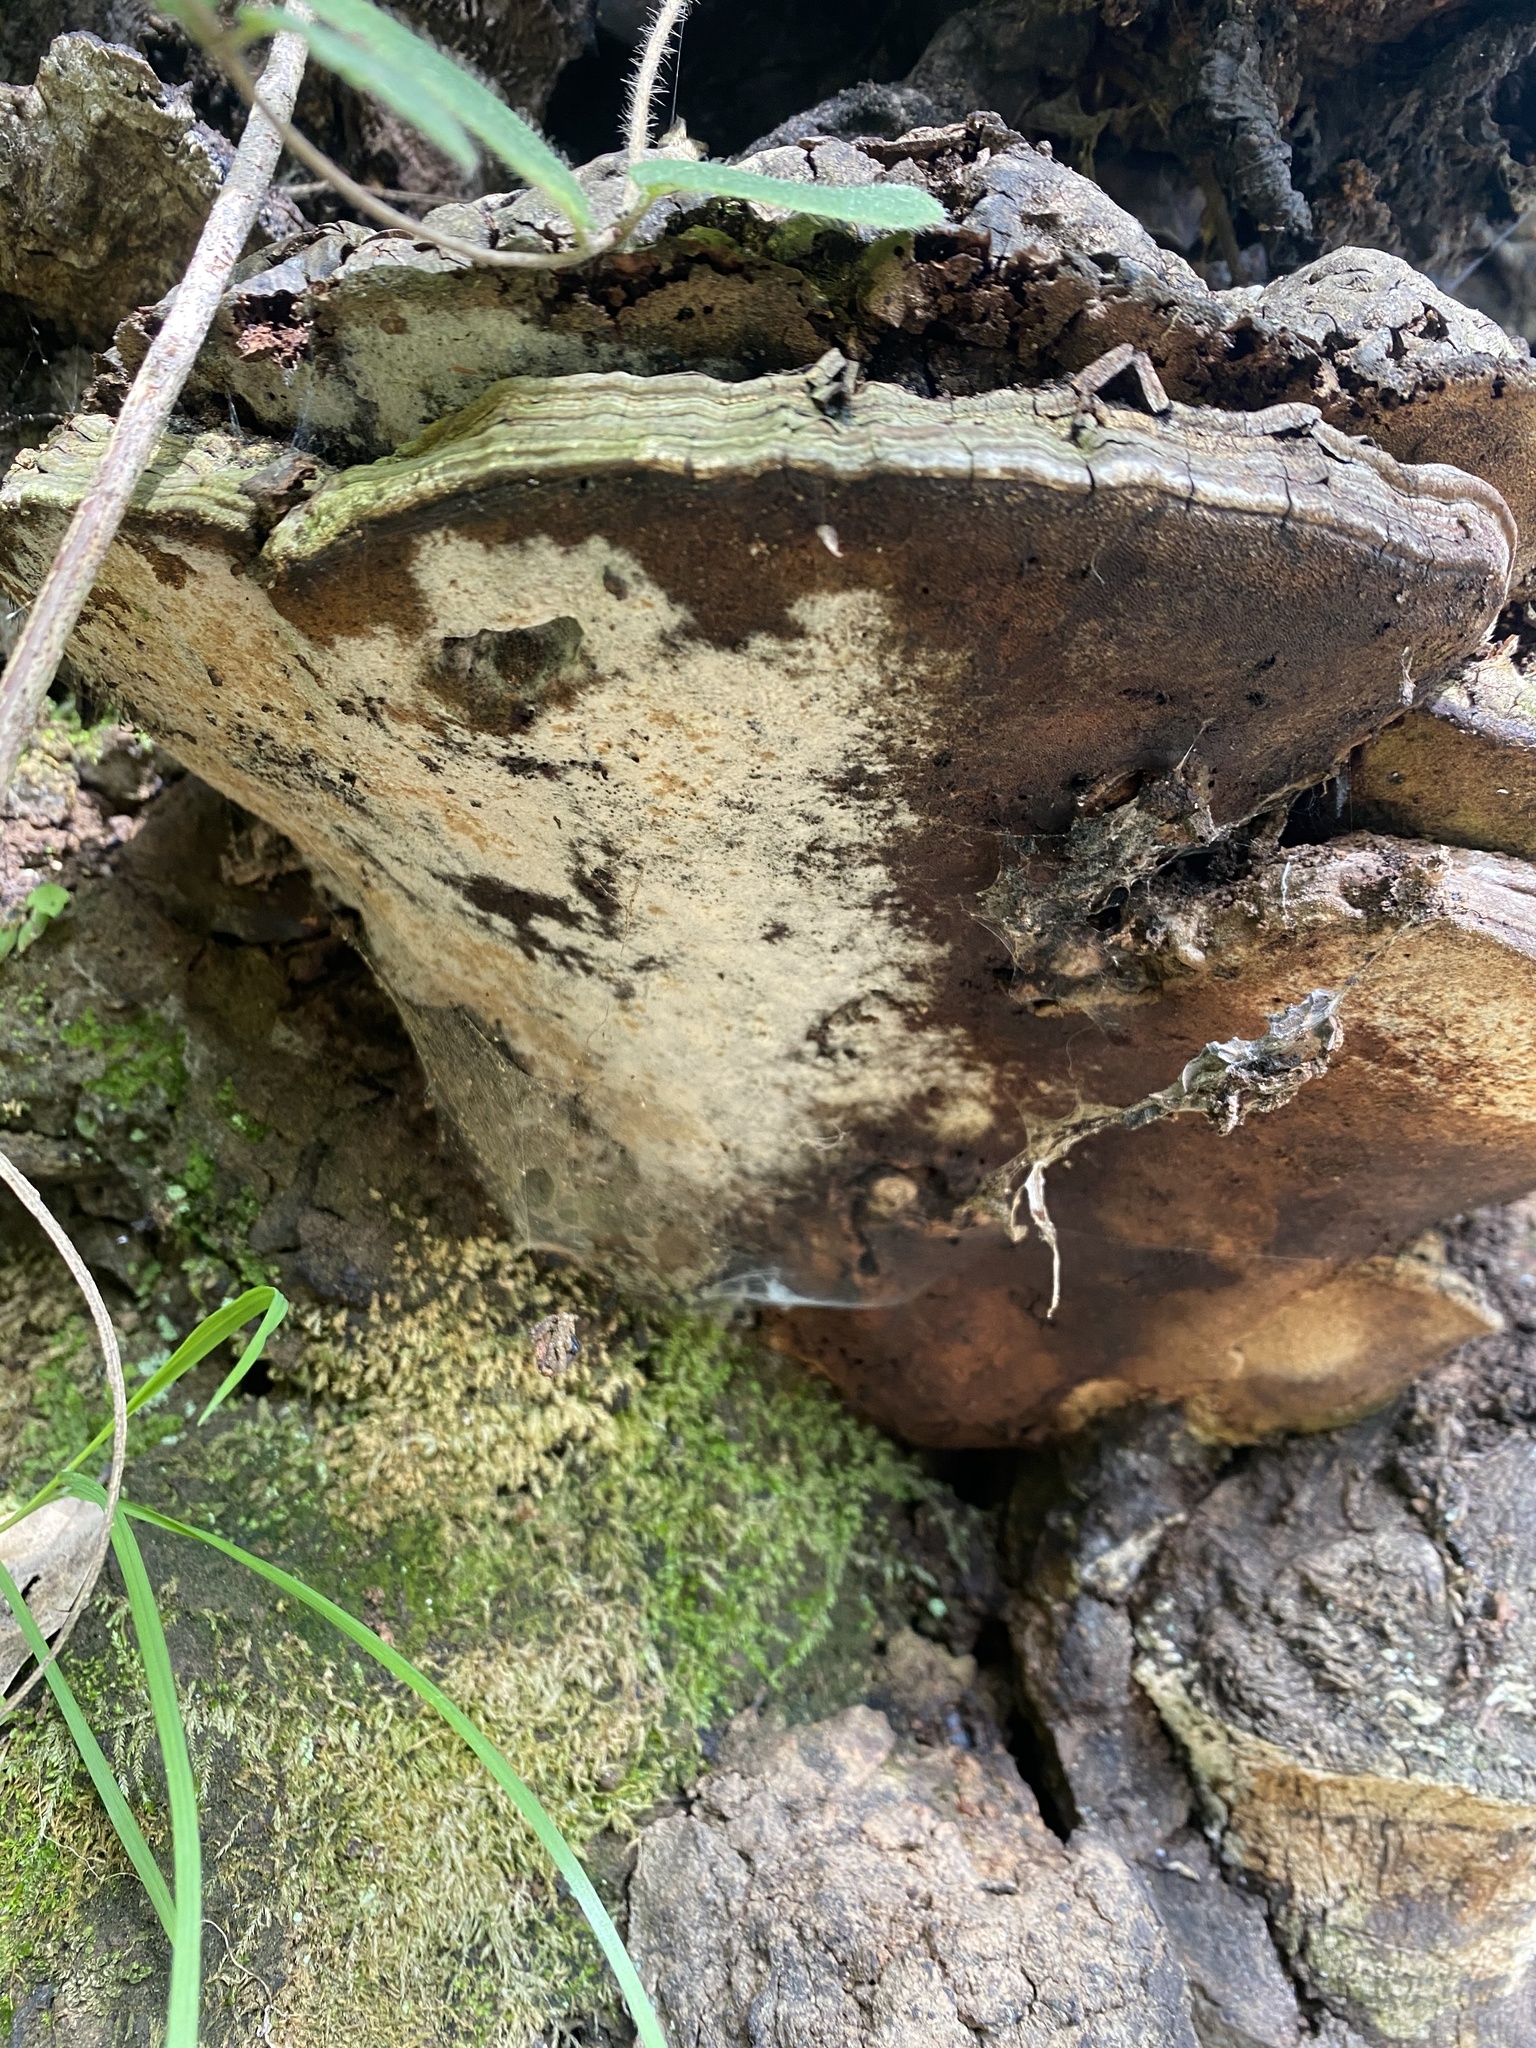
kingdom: Fungi
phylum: Basidiomycota
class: Agaricomycetes
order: Polyporales
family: Polyporaceae
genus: Ganoderma
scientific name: Ganoderma brownii
